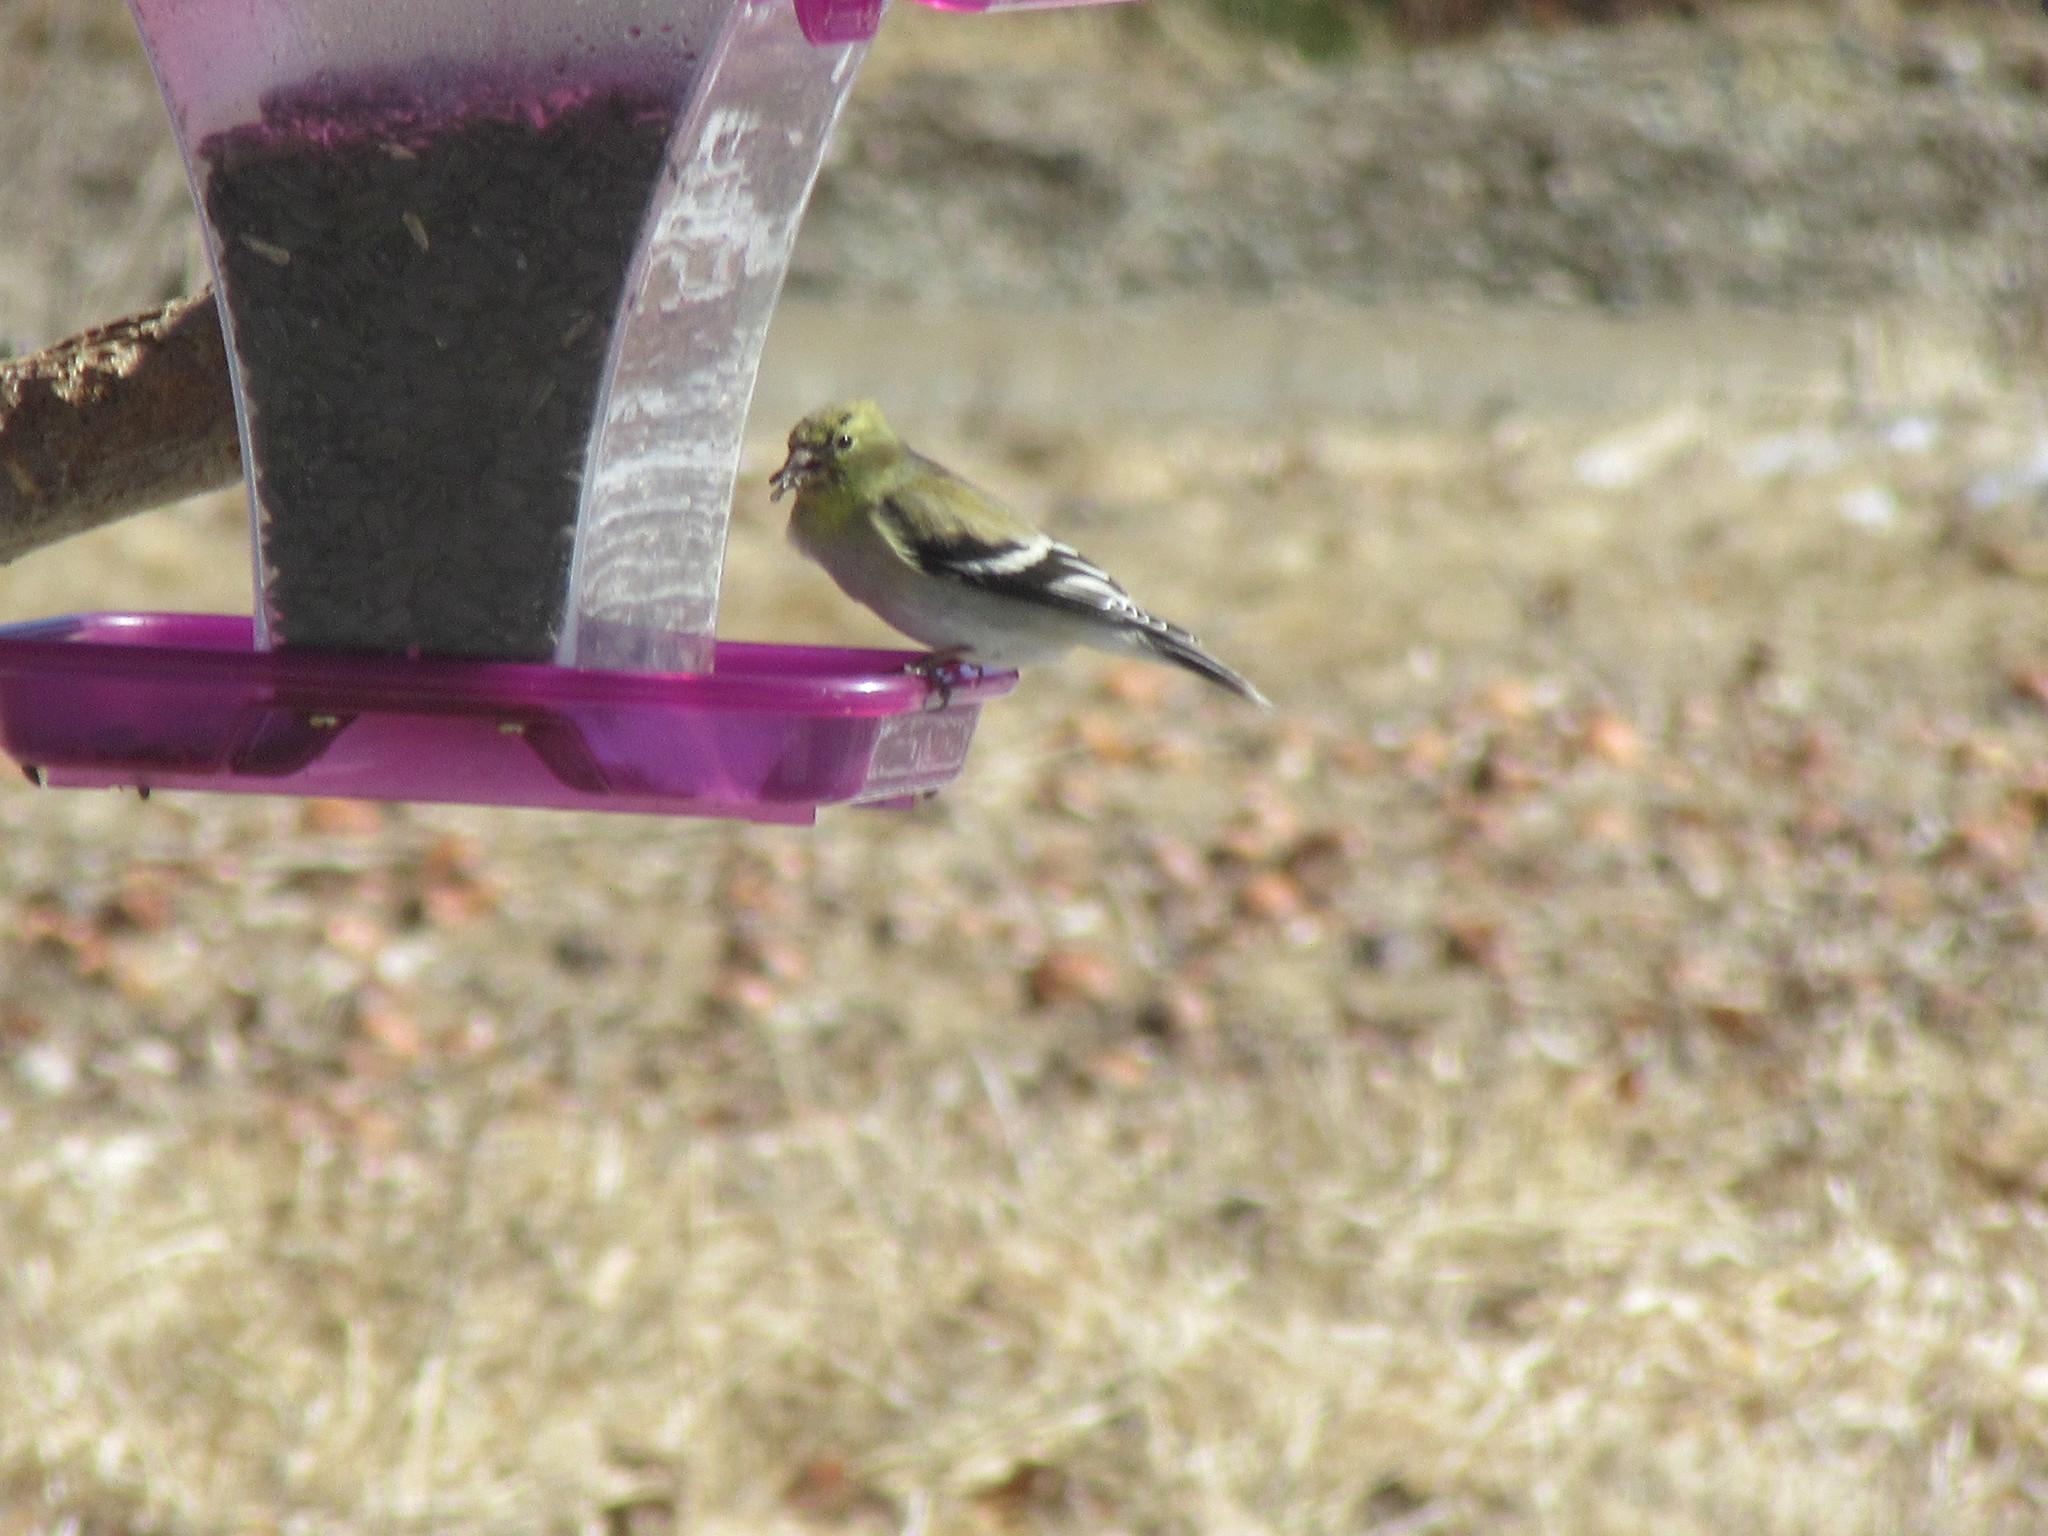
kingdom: Animalia
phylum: Chordata
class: Aves
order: Passeriformes
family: Fringillidae
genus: Spinus
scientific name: Spinus tristis
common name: American goldfinch
